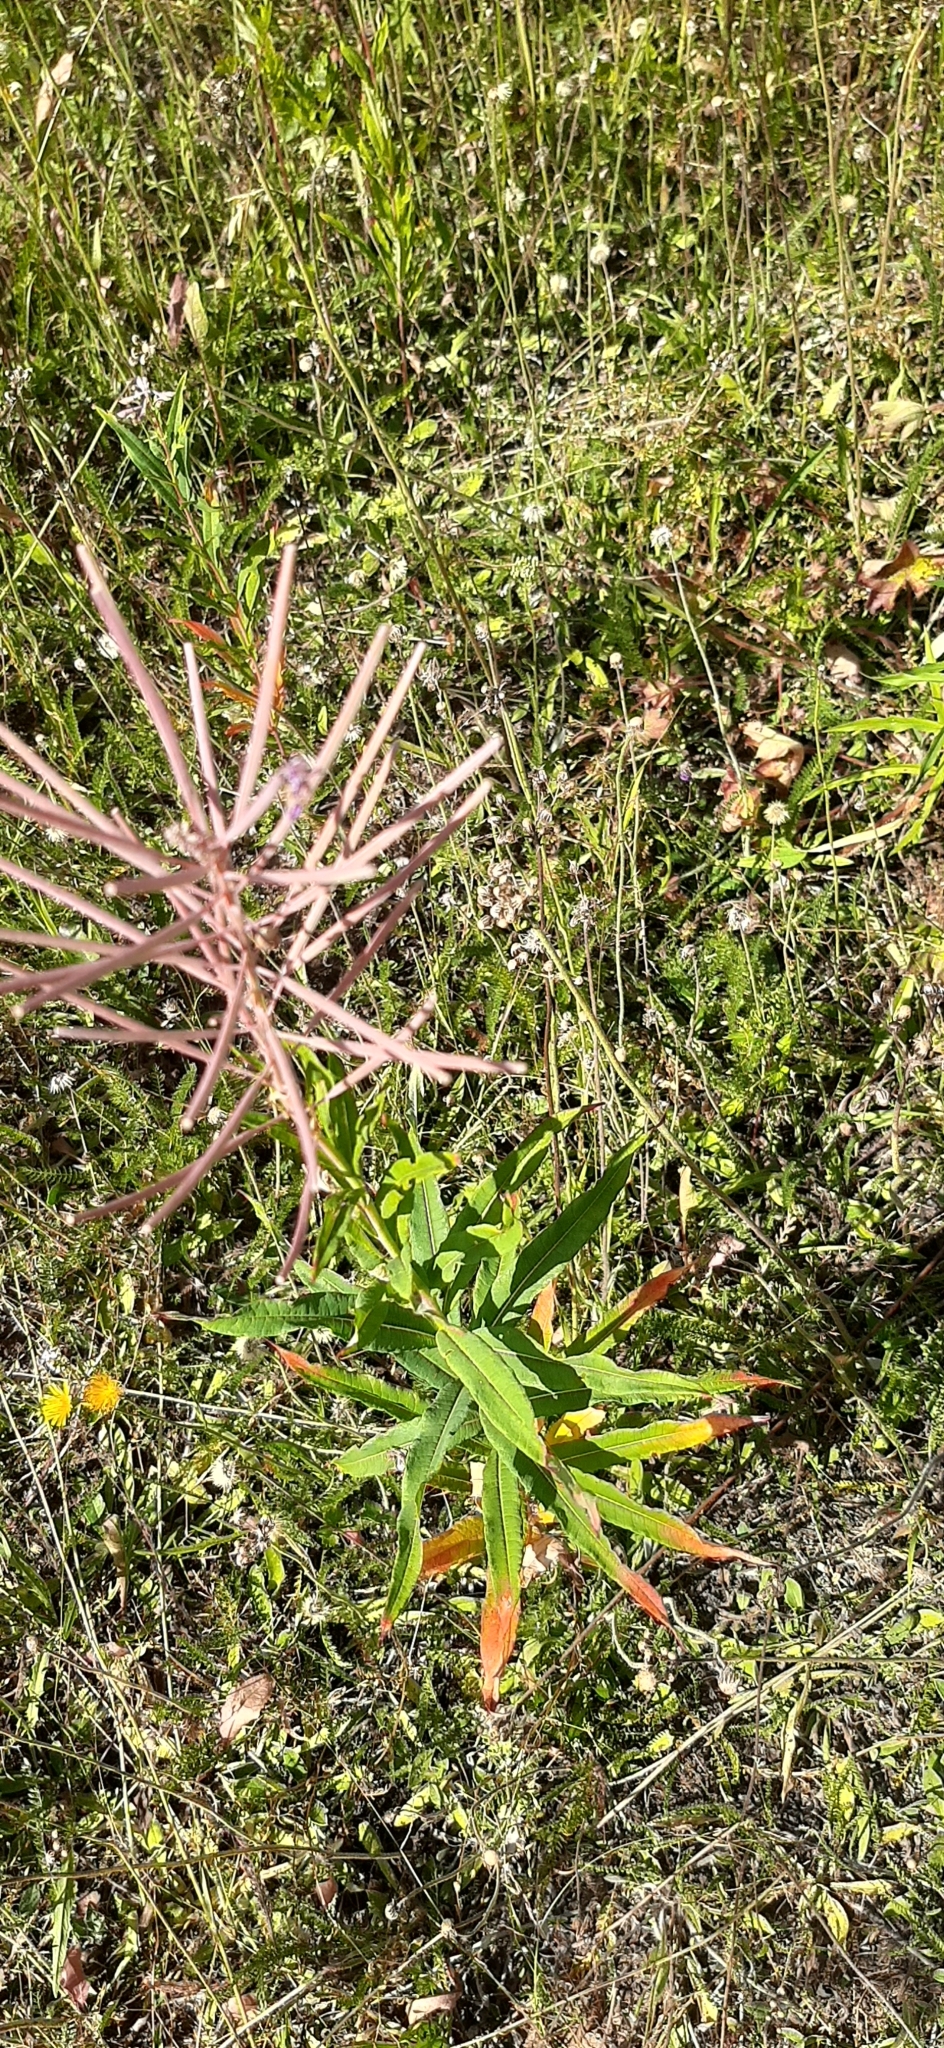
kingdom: Plantae
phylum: Tracheophyta
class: Magnoliopsida
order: Myrtales
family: Onagraceae
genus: Chamaenerion
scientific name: Chamaenerion angustifolium
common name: Fireweed
